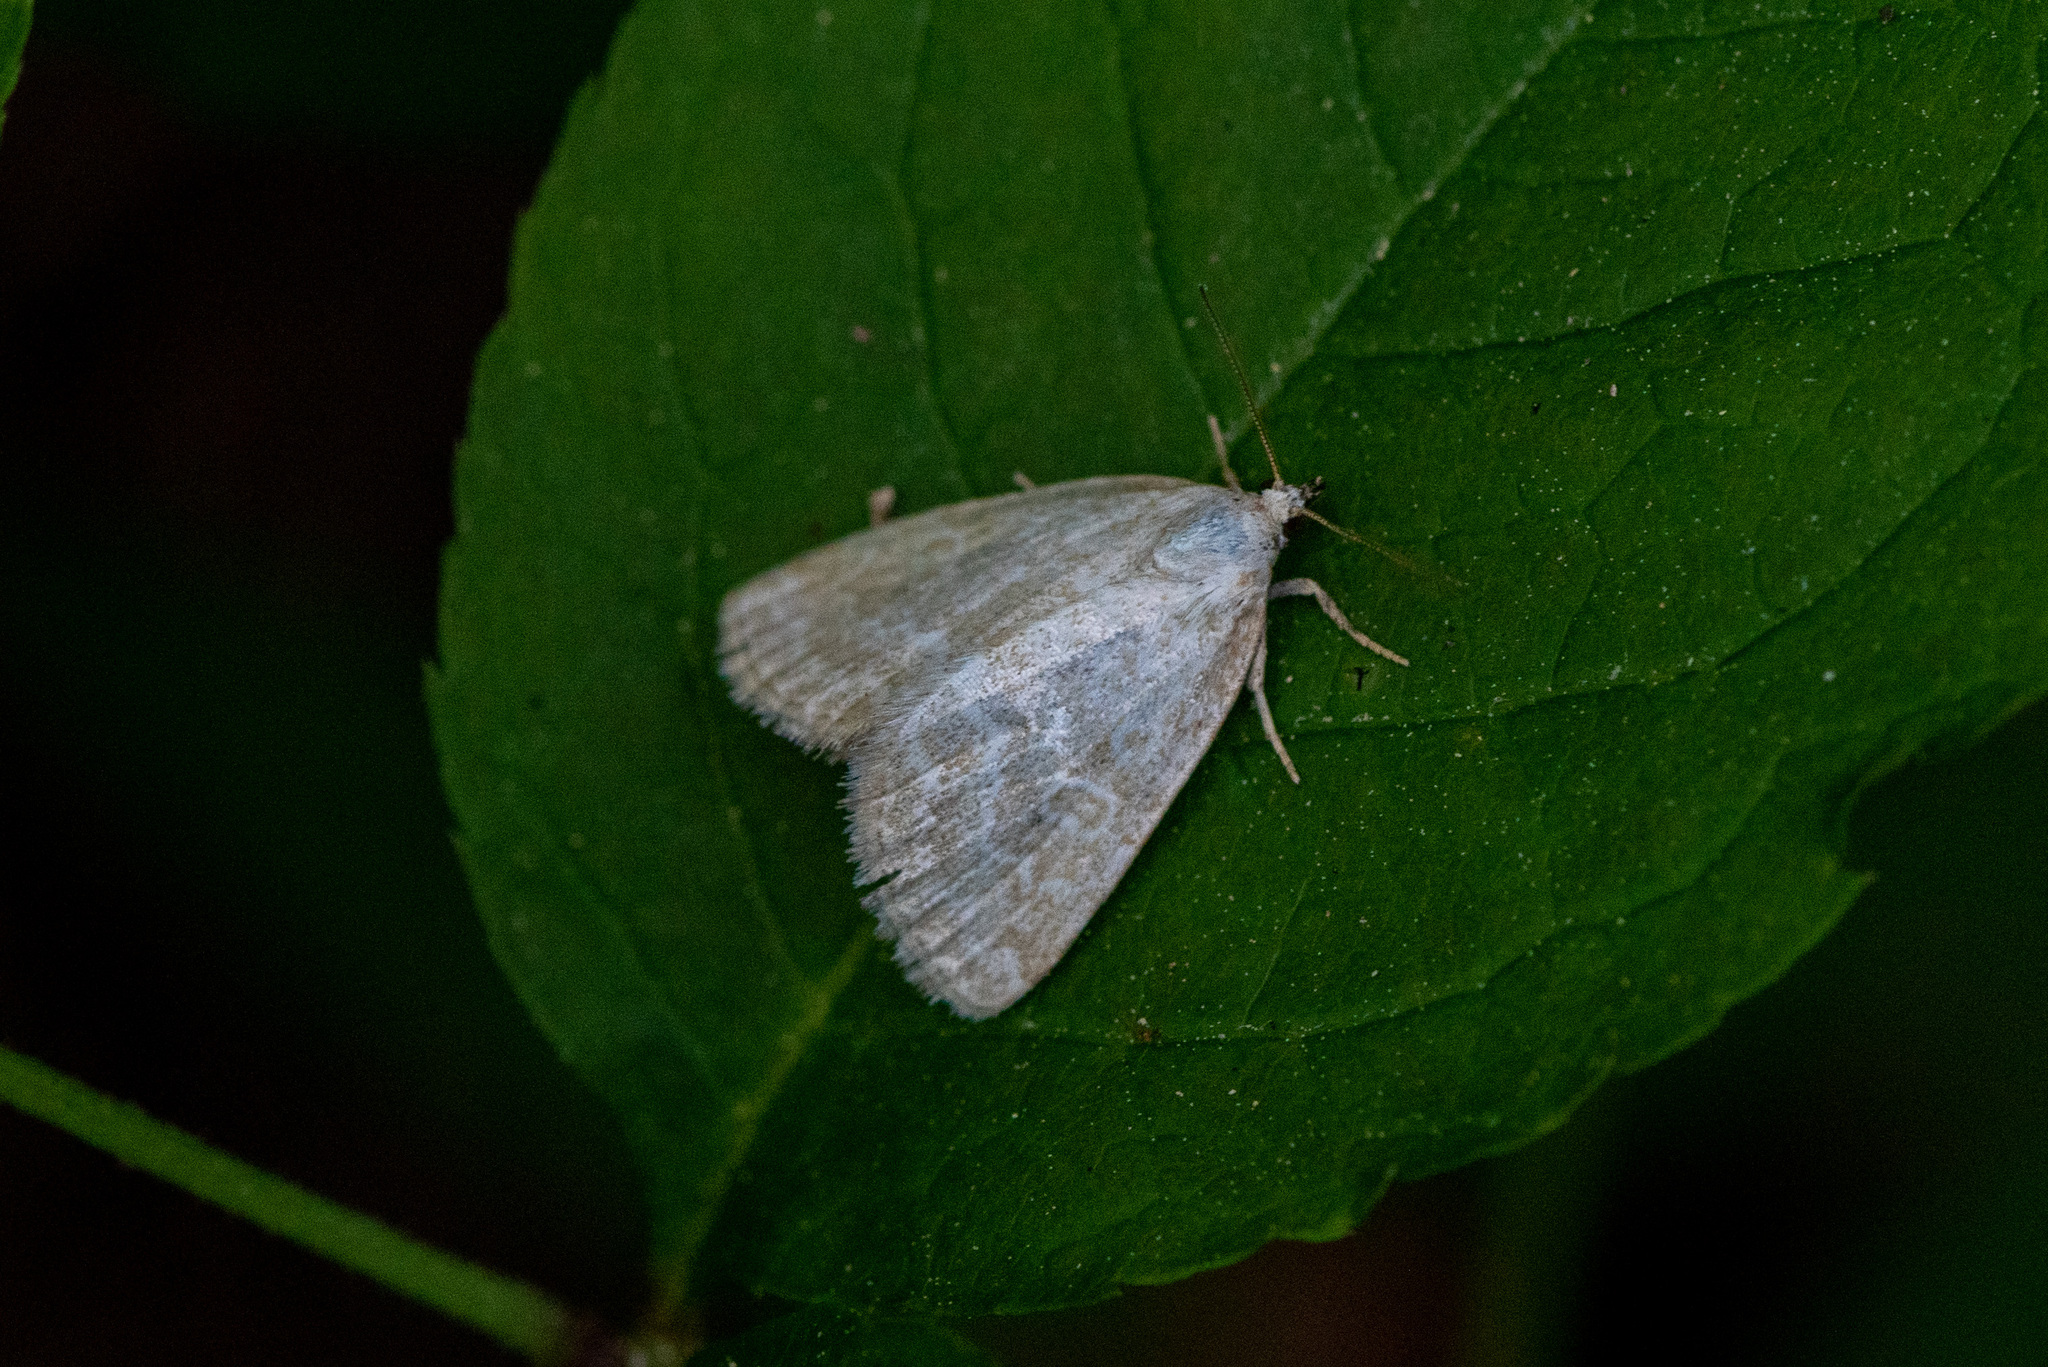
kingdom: Animalia
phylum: Arthropoda
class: Insecta
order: Lepidoptera
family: Noctuidae
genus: Protodeltote
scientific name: Protodeltote albidula
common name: Pale glyph
